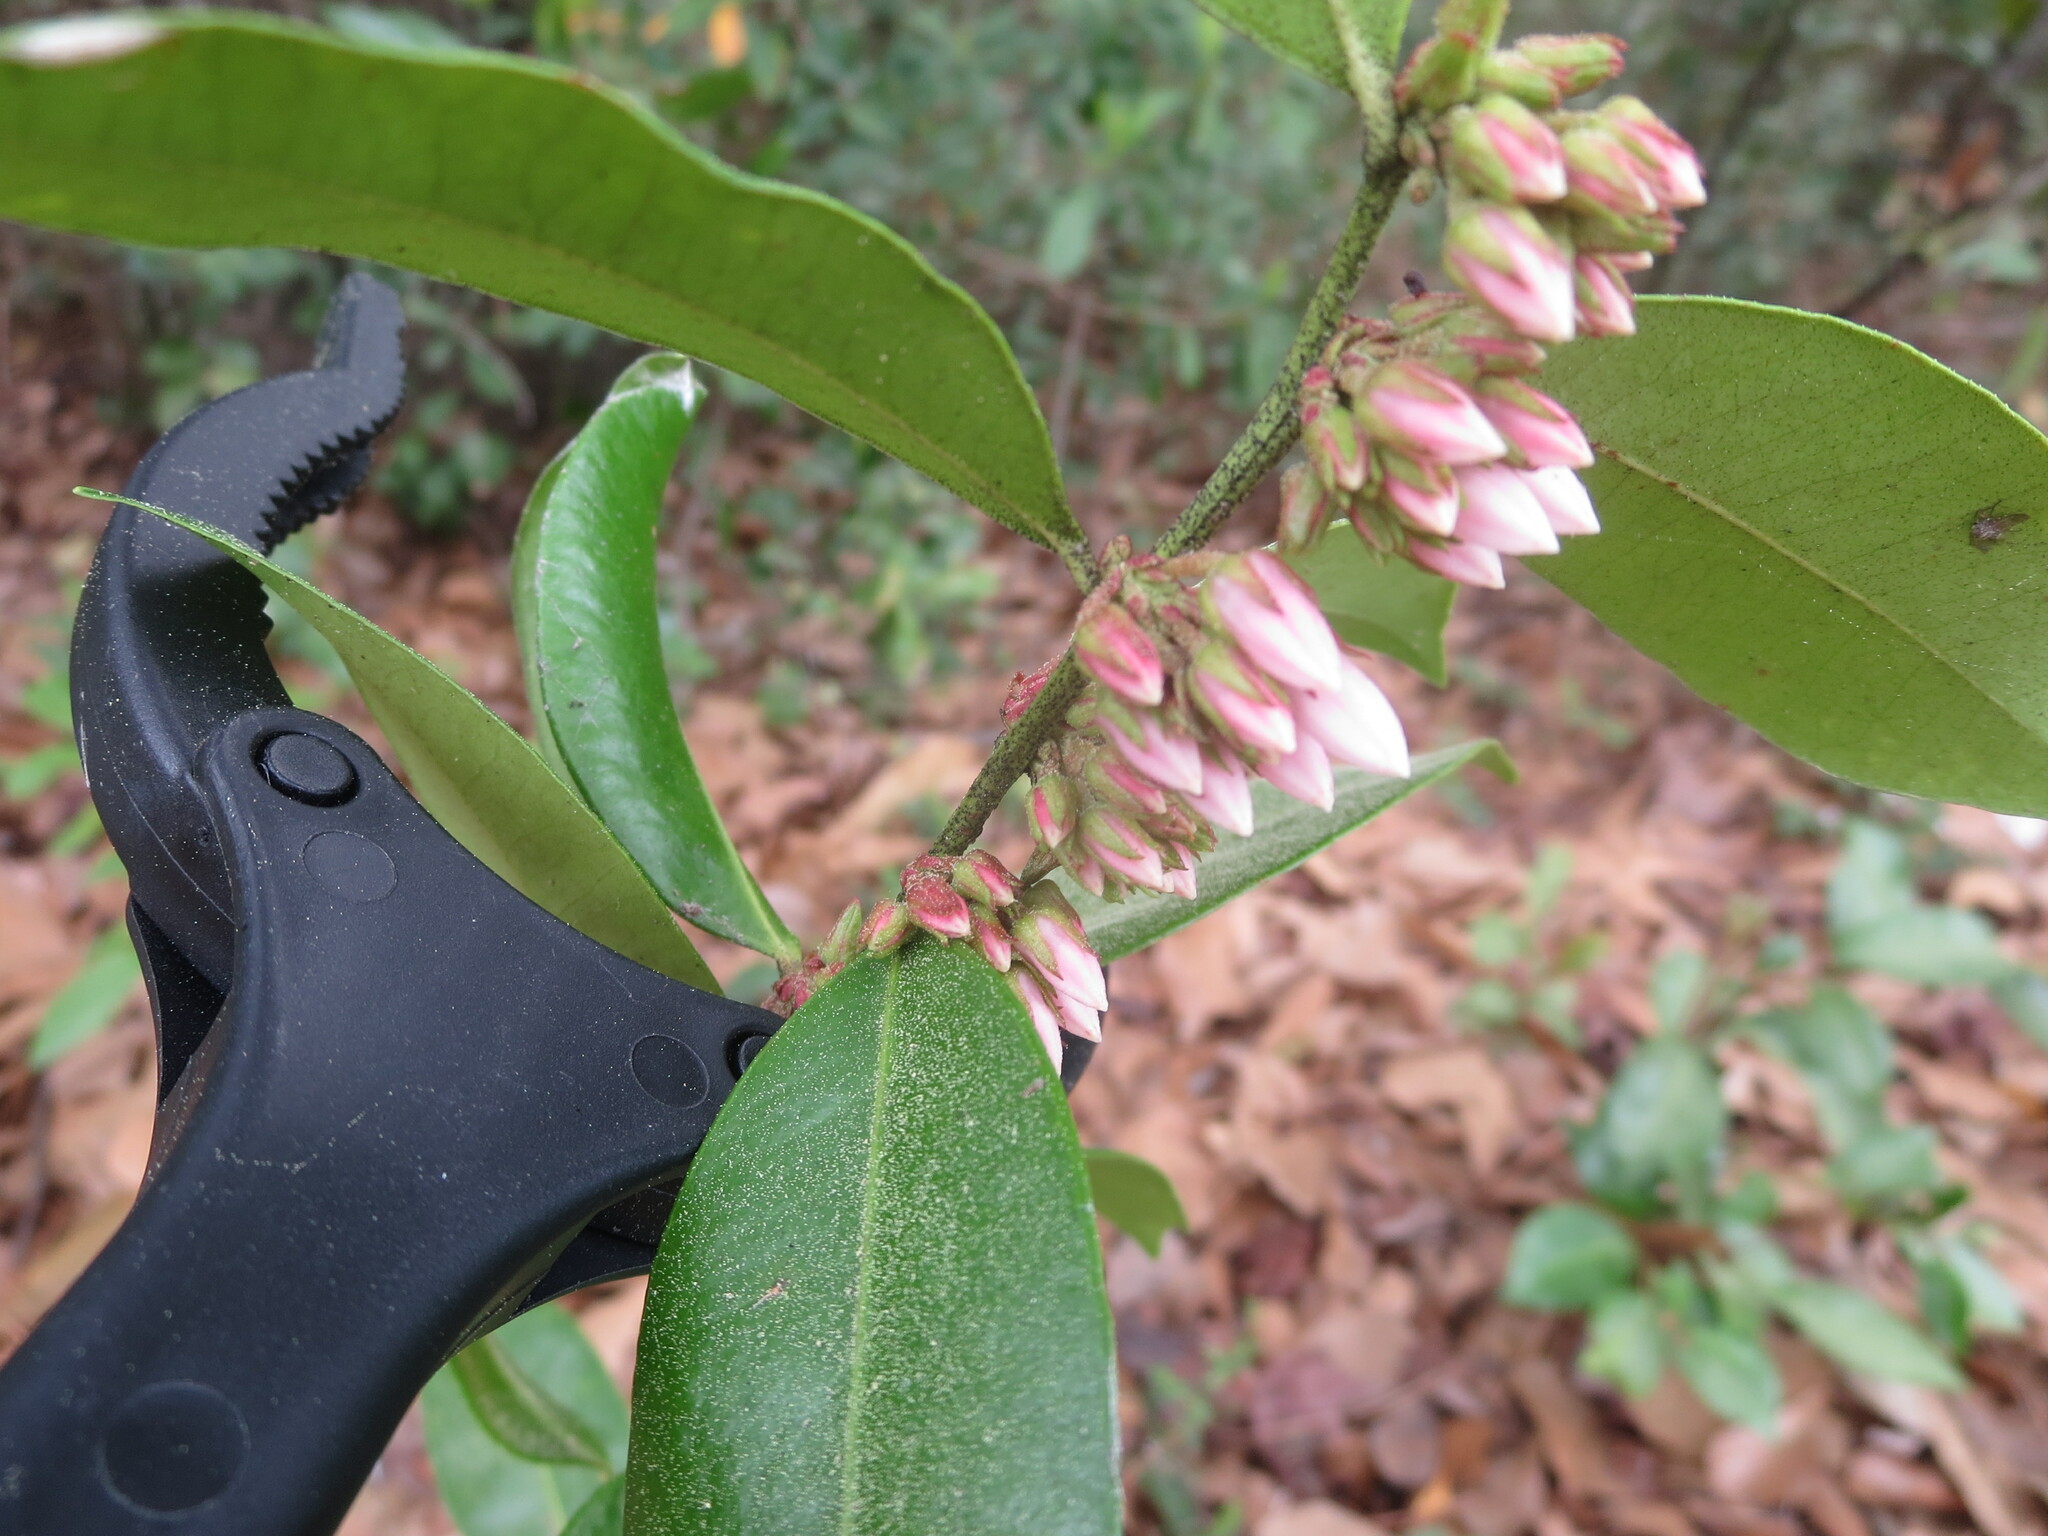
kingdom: Plantae
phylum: Tracheophyta
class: Magnoliopsida
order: Ericales
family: Ericaceae
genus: Lyonia
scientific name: Lyonia lucida
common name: Fetterbush
